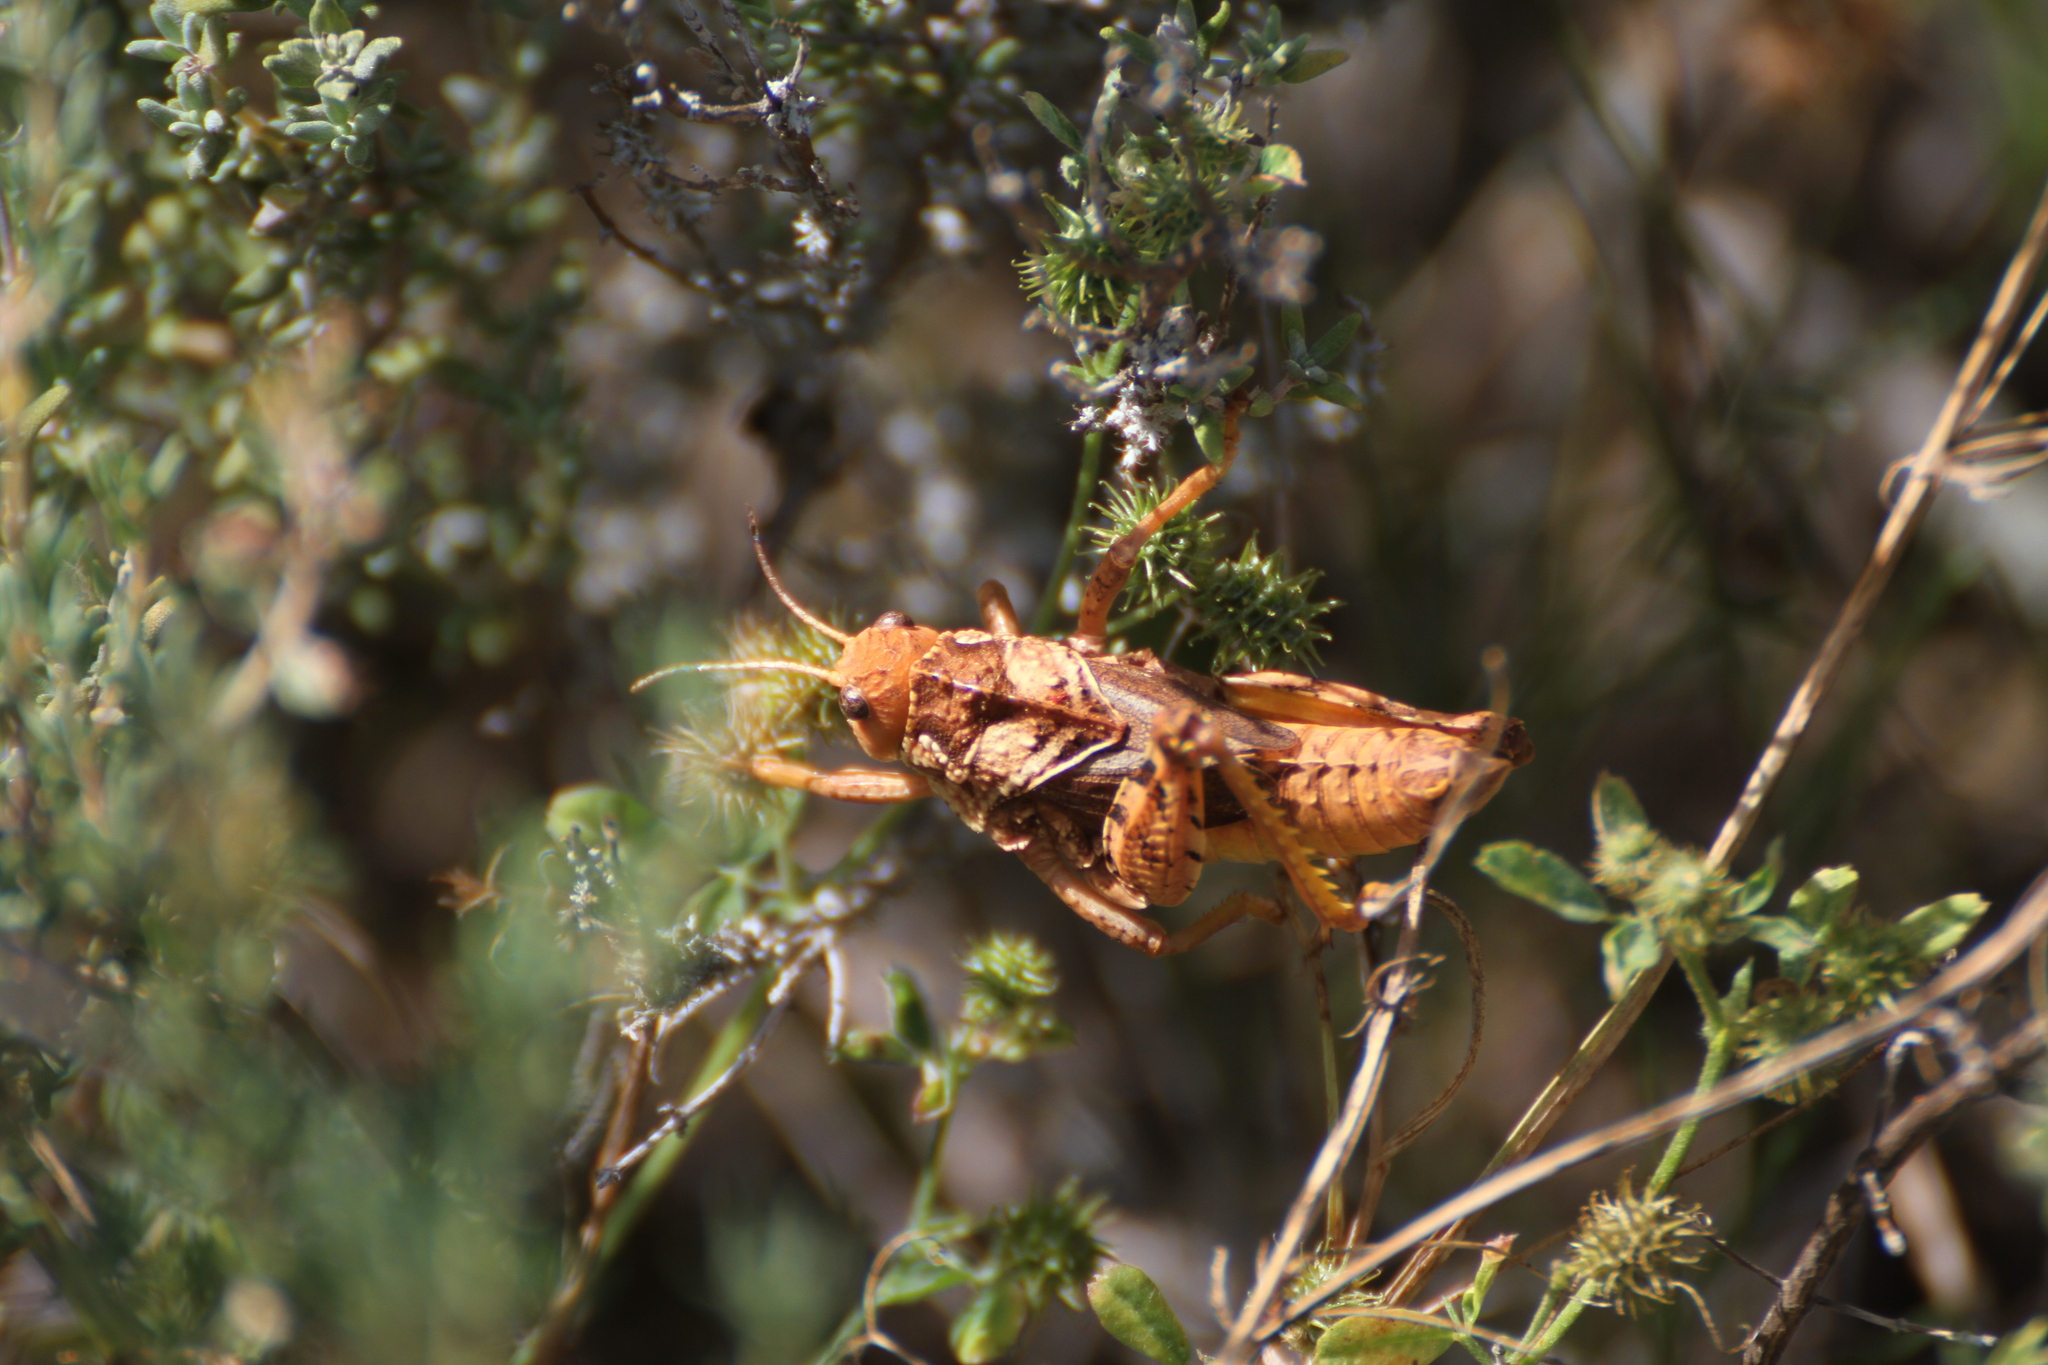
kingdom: Animalia
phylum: Arthropoda
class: Insecta
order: Orthoptera
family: Pamphagidae
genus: Prionotropis
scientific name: Prionotropis azami
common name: French stone grasshopper
